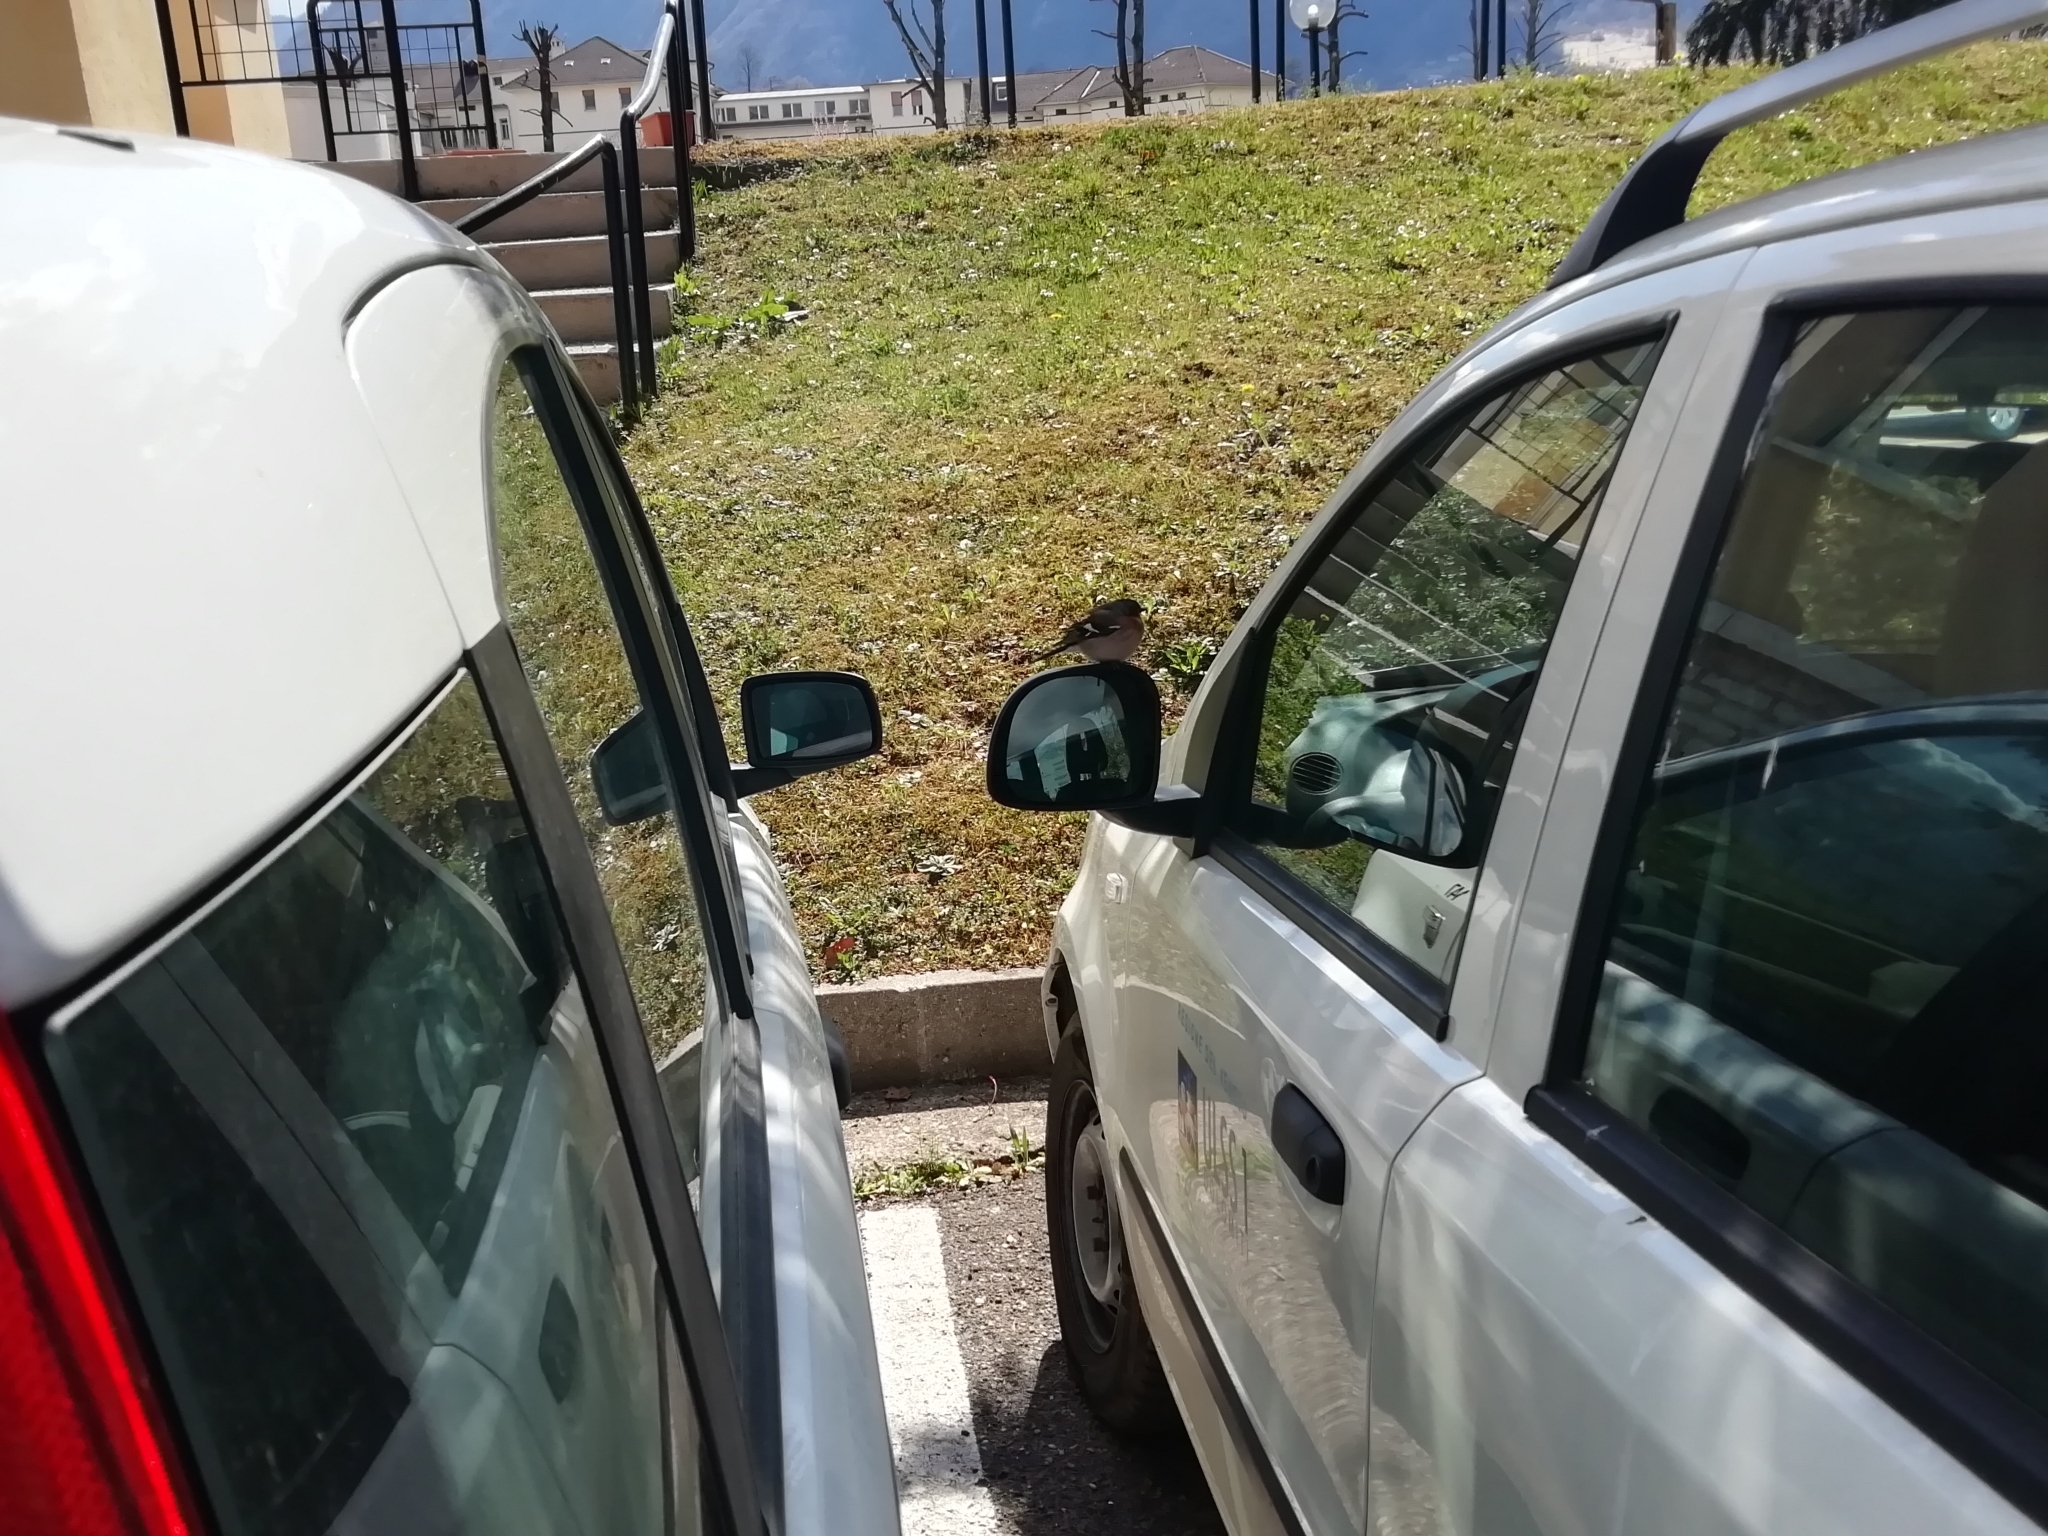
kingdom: Animalia
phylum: Chordata
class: Aves
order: Passeriformes
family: Fringillidae
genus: Fringilla
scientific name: Fringilla coelebs
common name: Common chaffinch
